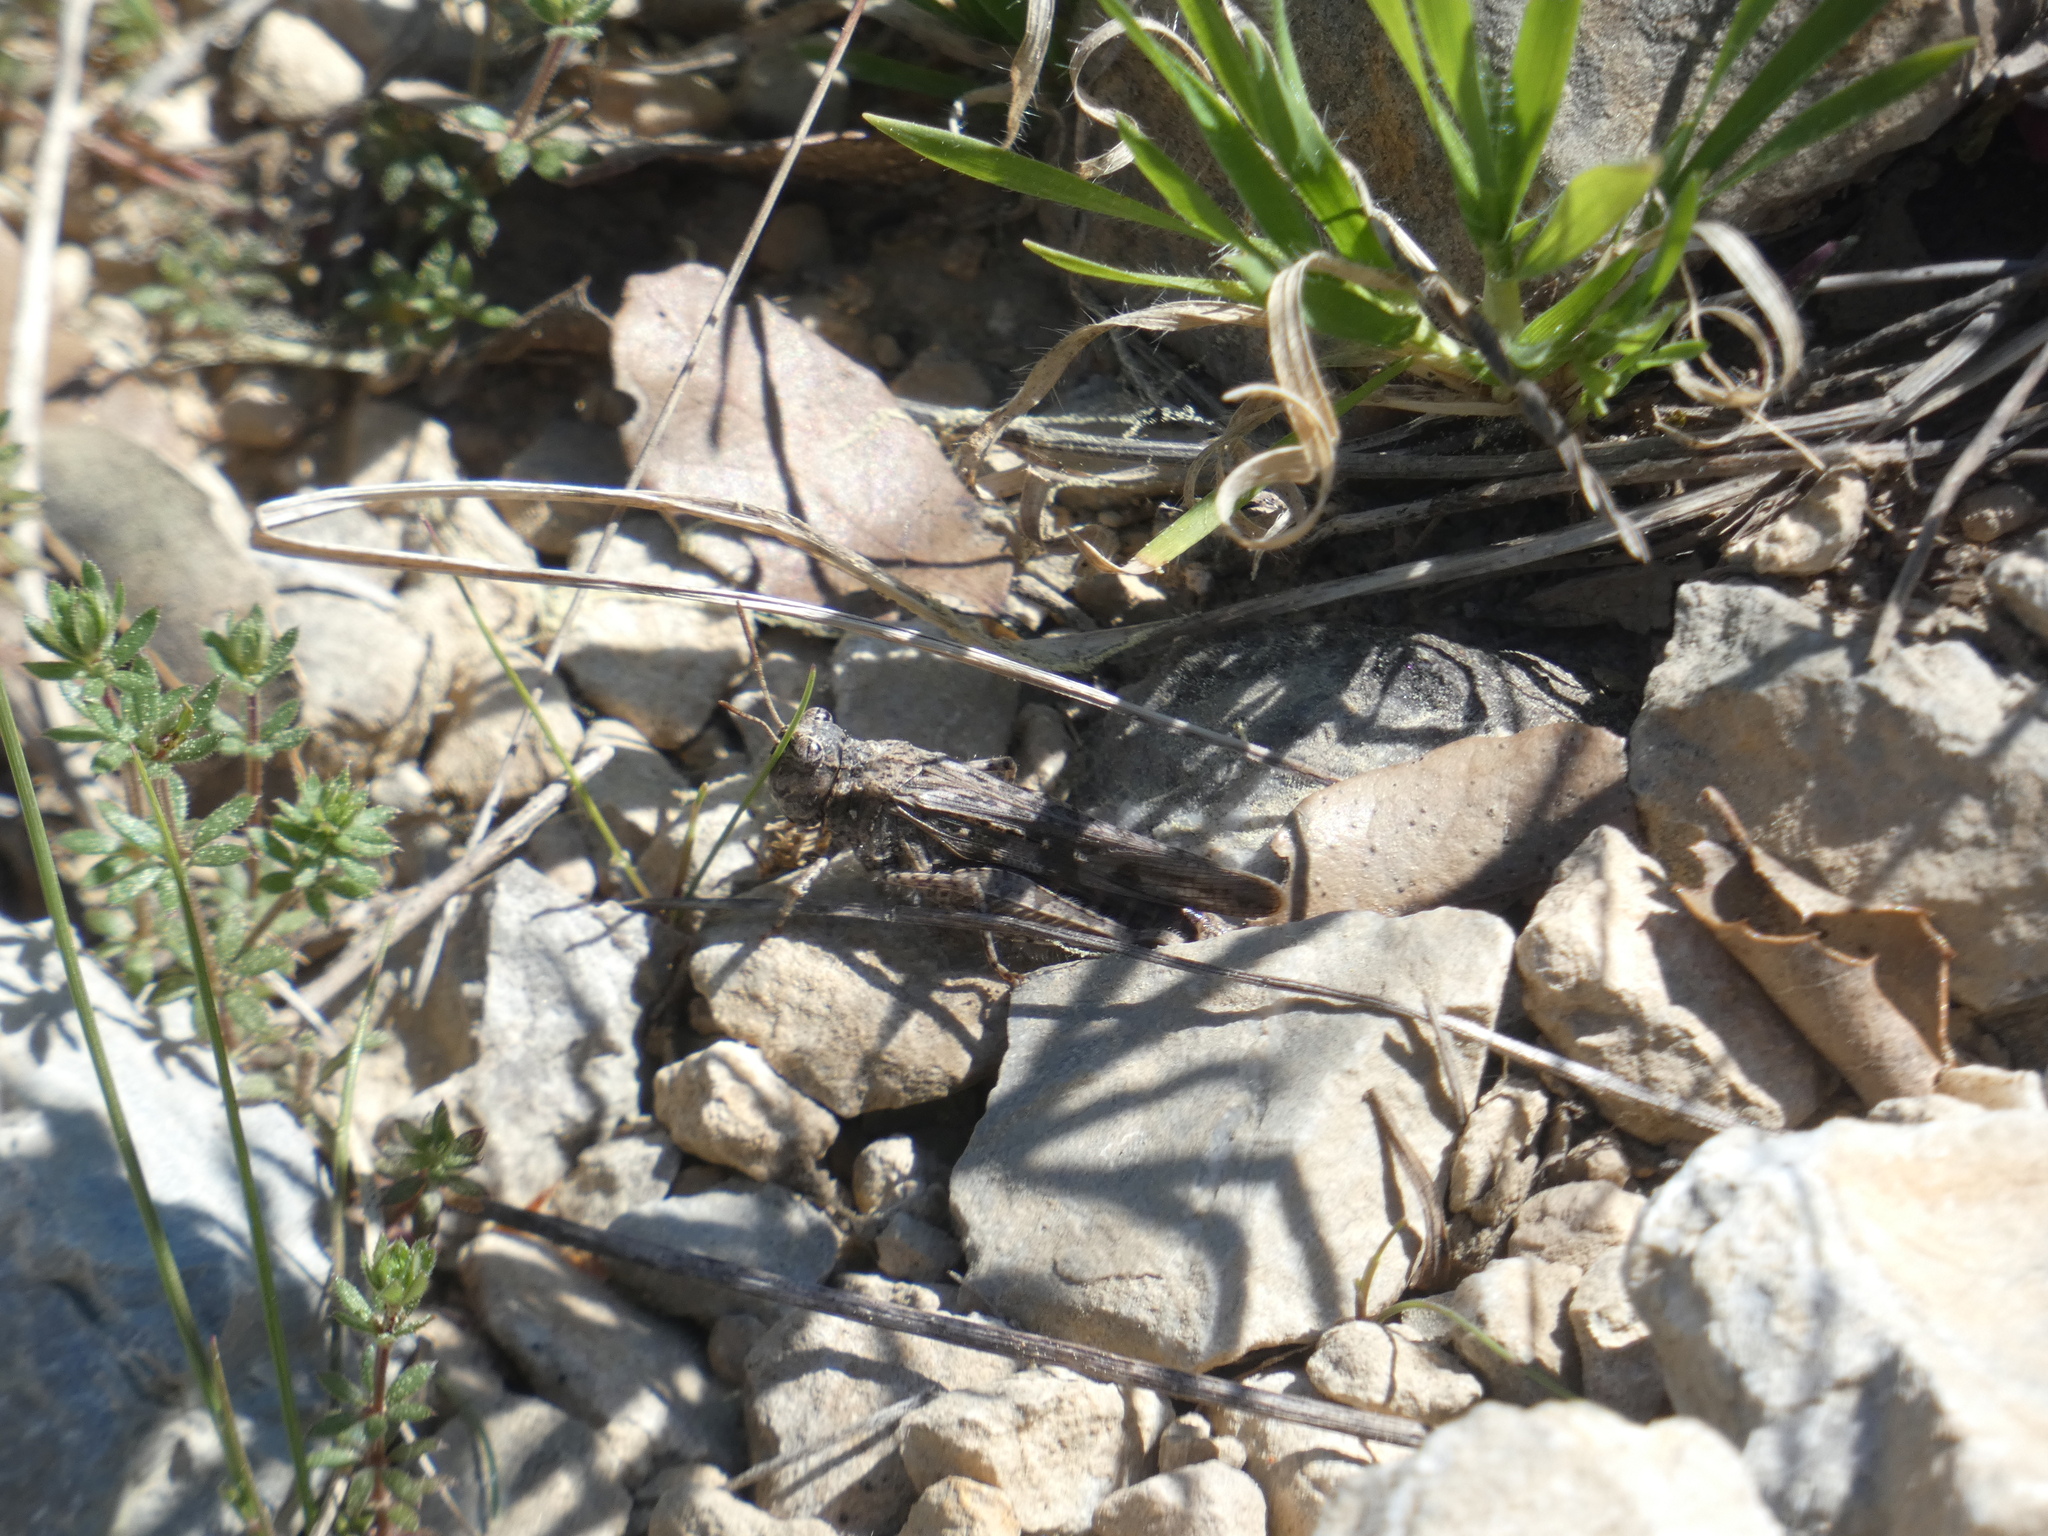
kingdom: Animalia
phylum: Arthropoda
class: Insecta
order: Orthoptera
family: Acrididae
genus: Acrotylus
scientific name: Acrotylus fischeri
